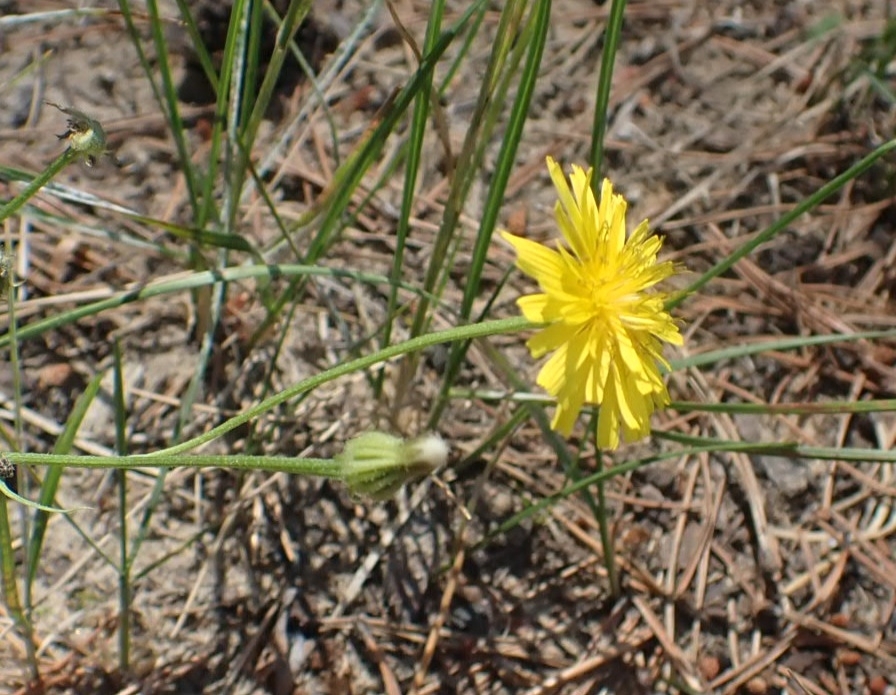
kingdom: Plantae
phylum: Tracheophyta
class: Magnoliopsida
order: Asterales
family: Asteraceae
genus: Crepis
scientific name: Crepis tectorum
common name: Narrow-leaved hawk's-beard
